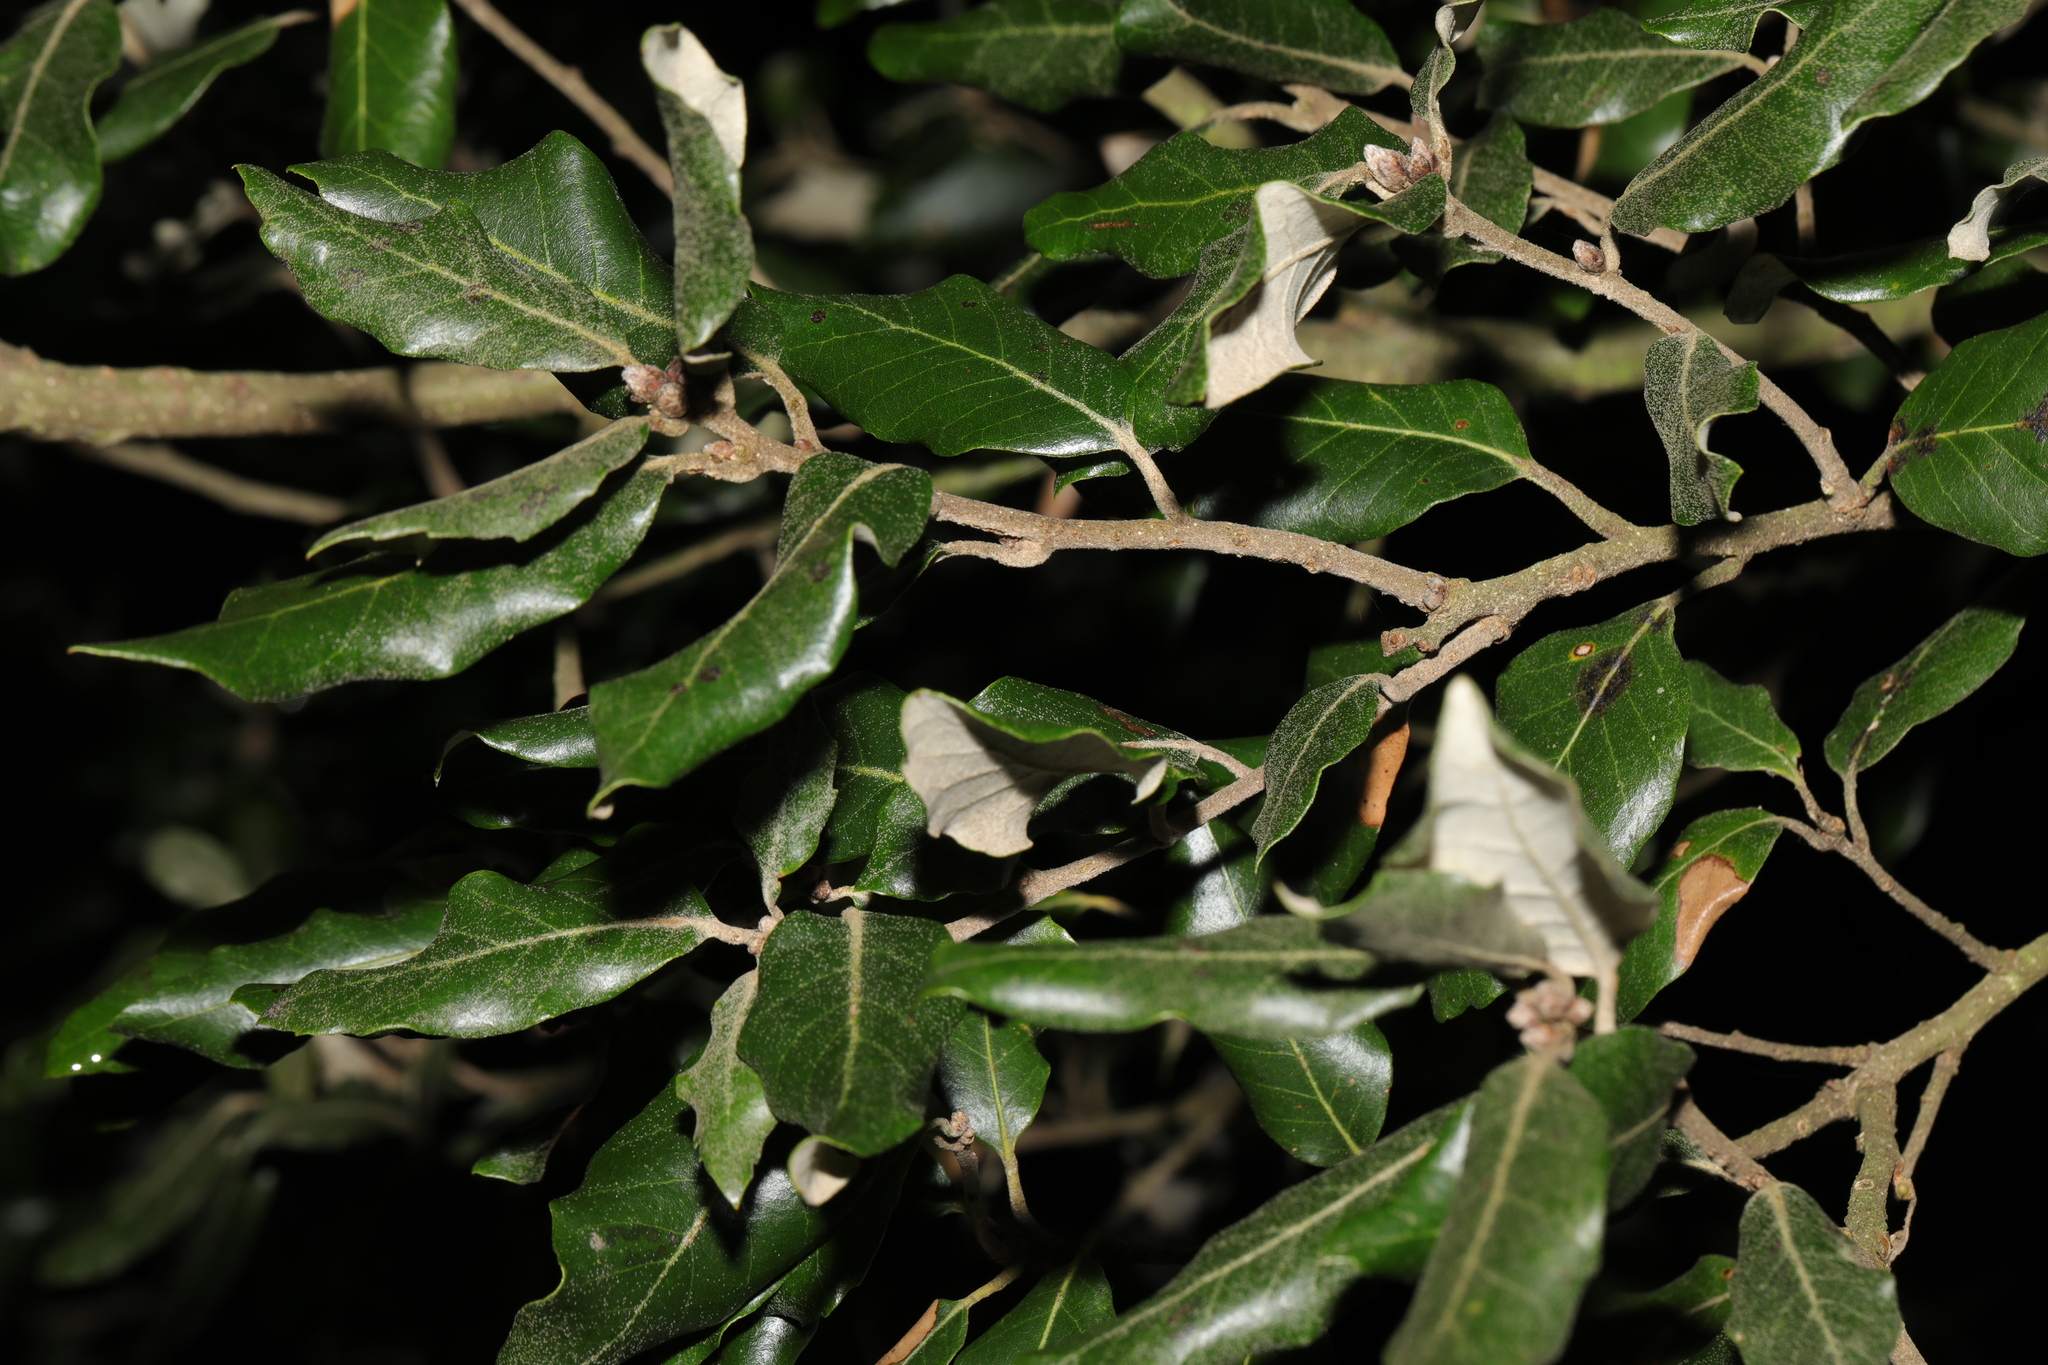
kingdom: Plantae
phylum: Tracheophyta
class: Magnoliopsida
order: Fagales
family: Fagaceae
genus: Quercus
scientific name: Quercus ilex
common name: Evergreen oak
